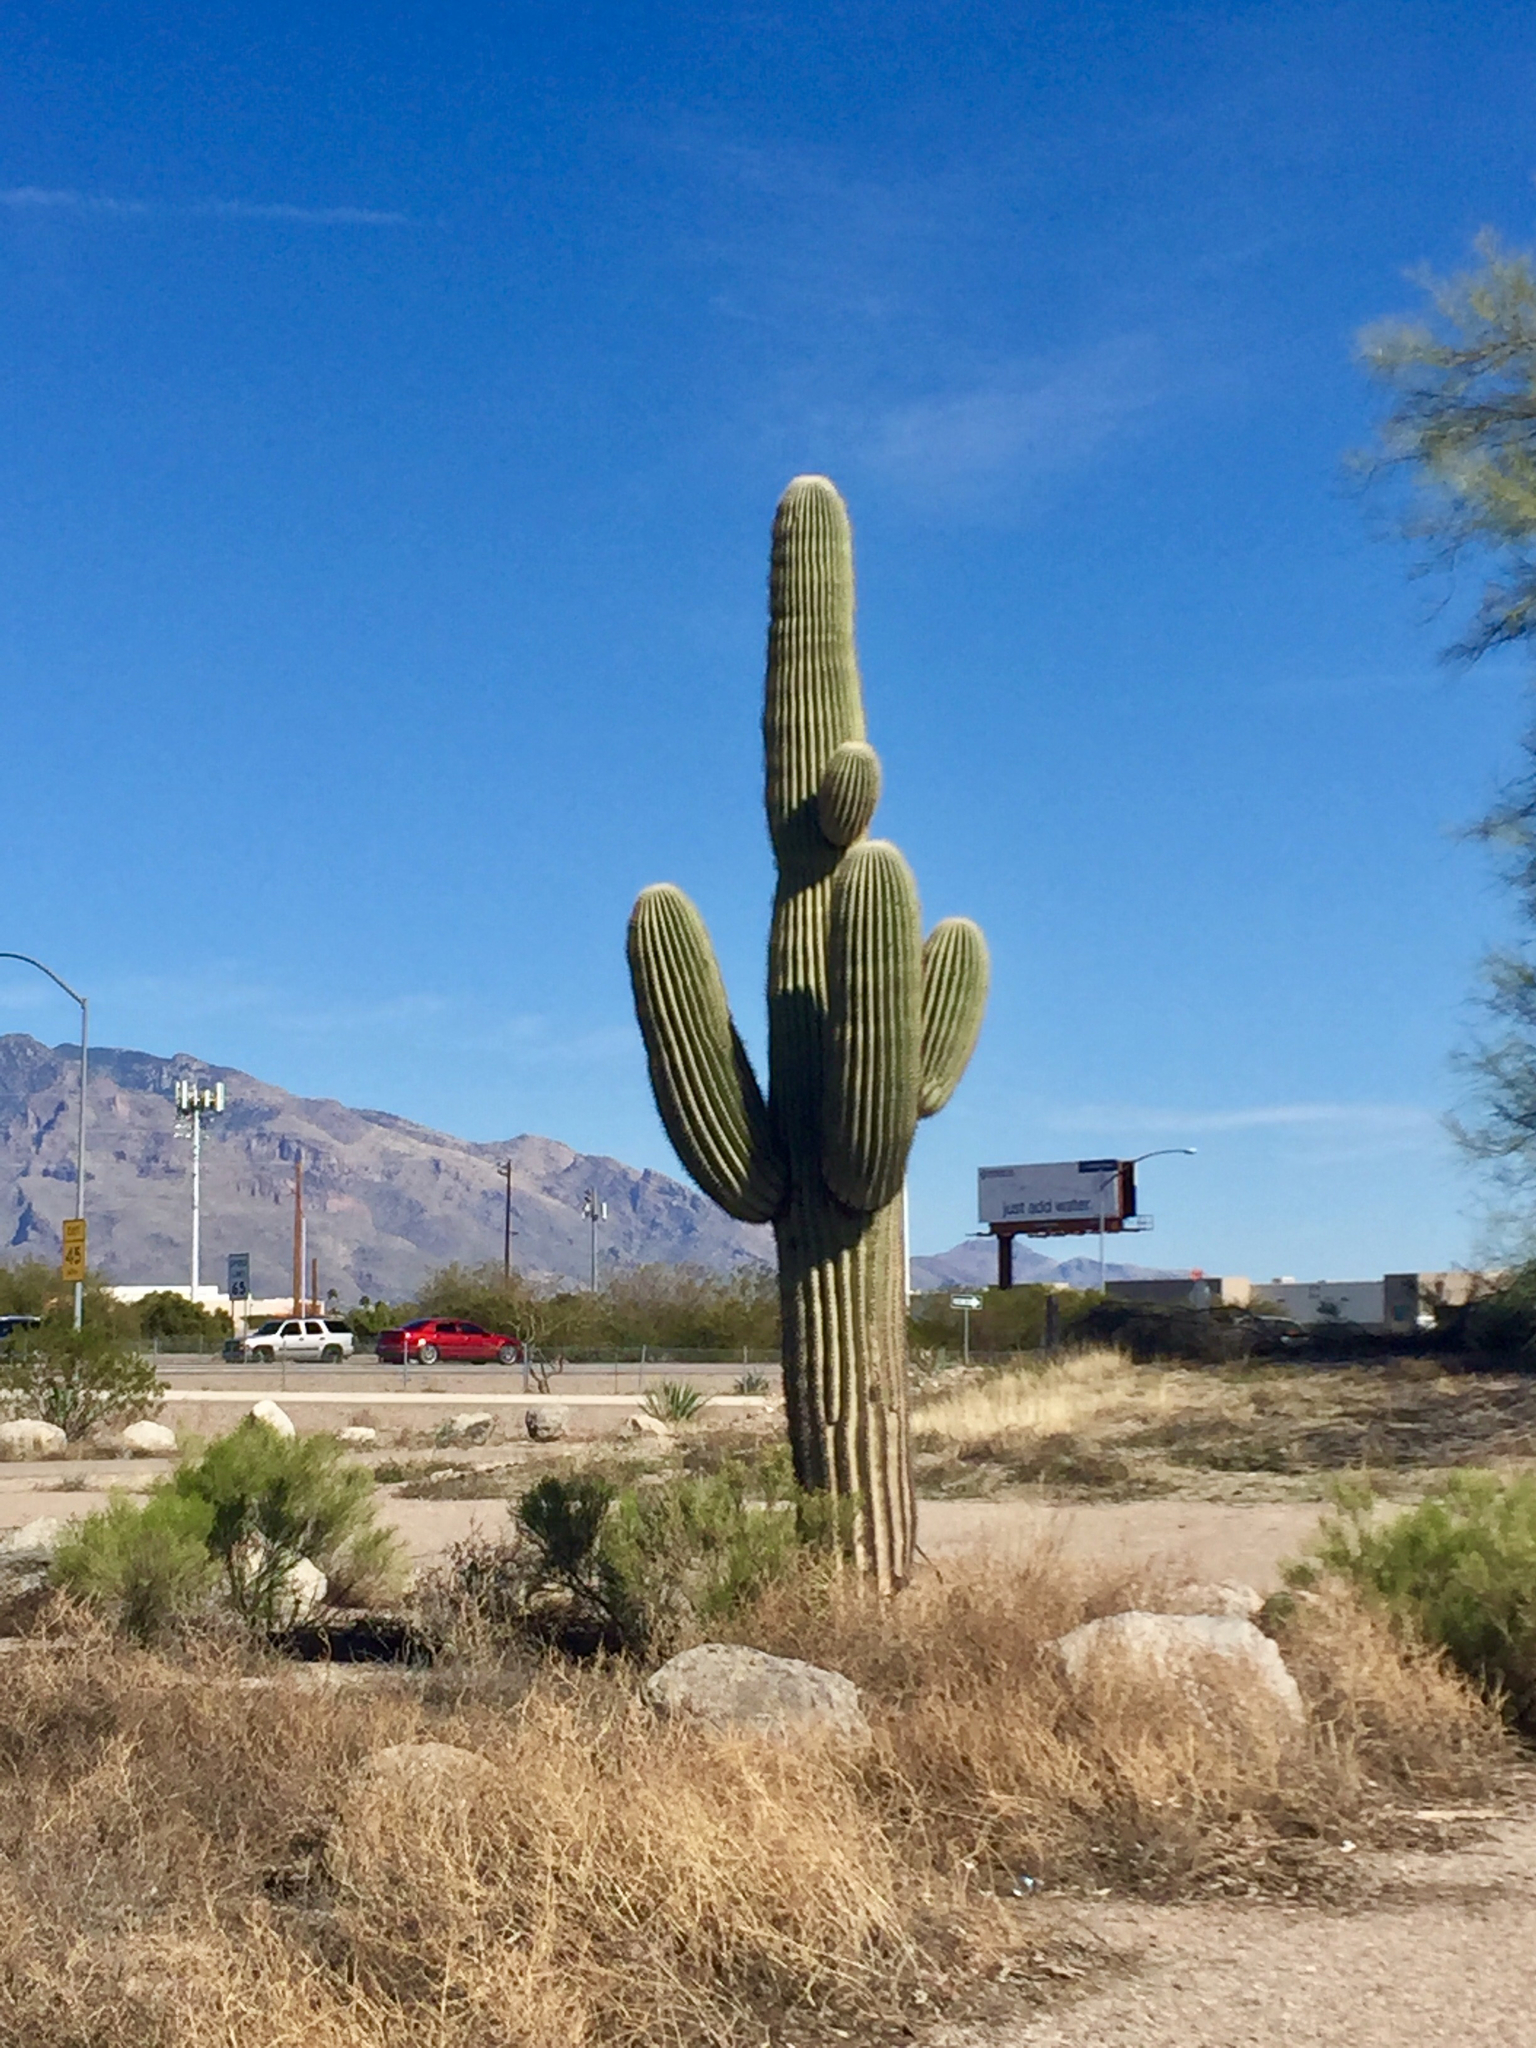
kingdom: Plantae
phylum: Tracheophyta
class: Magnoliopsida
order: Caryophyllales
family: Cactaceae
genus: Carnegiea
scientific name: Carnegiea gigantea
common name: Saguaro
